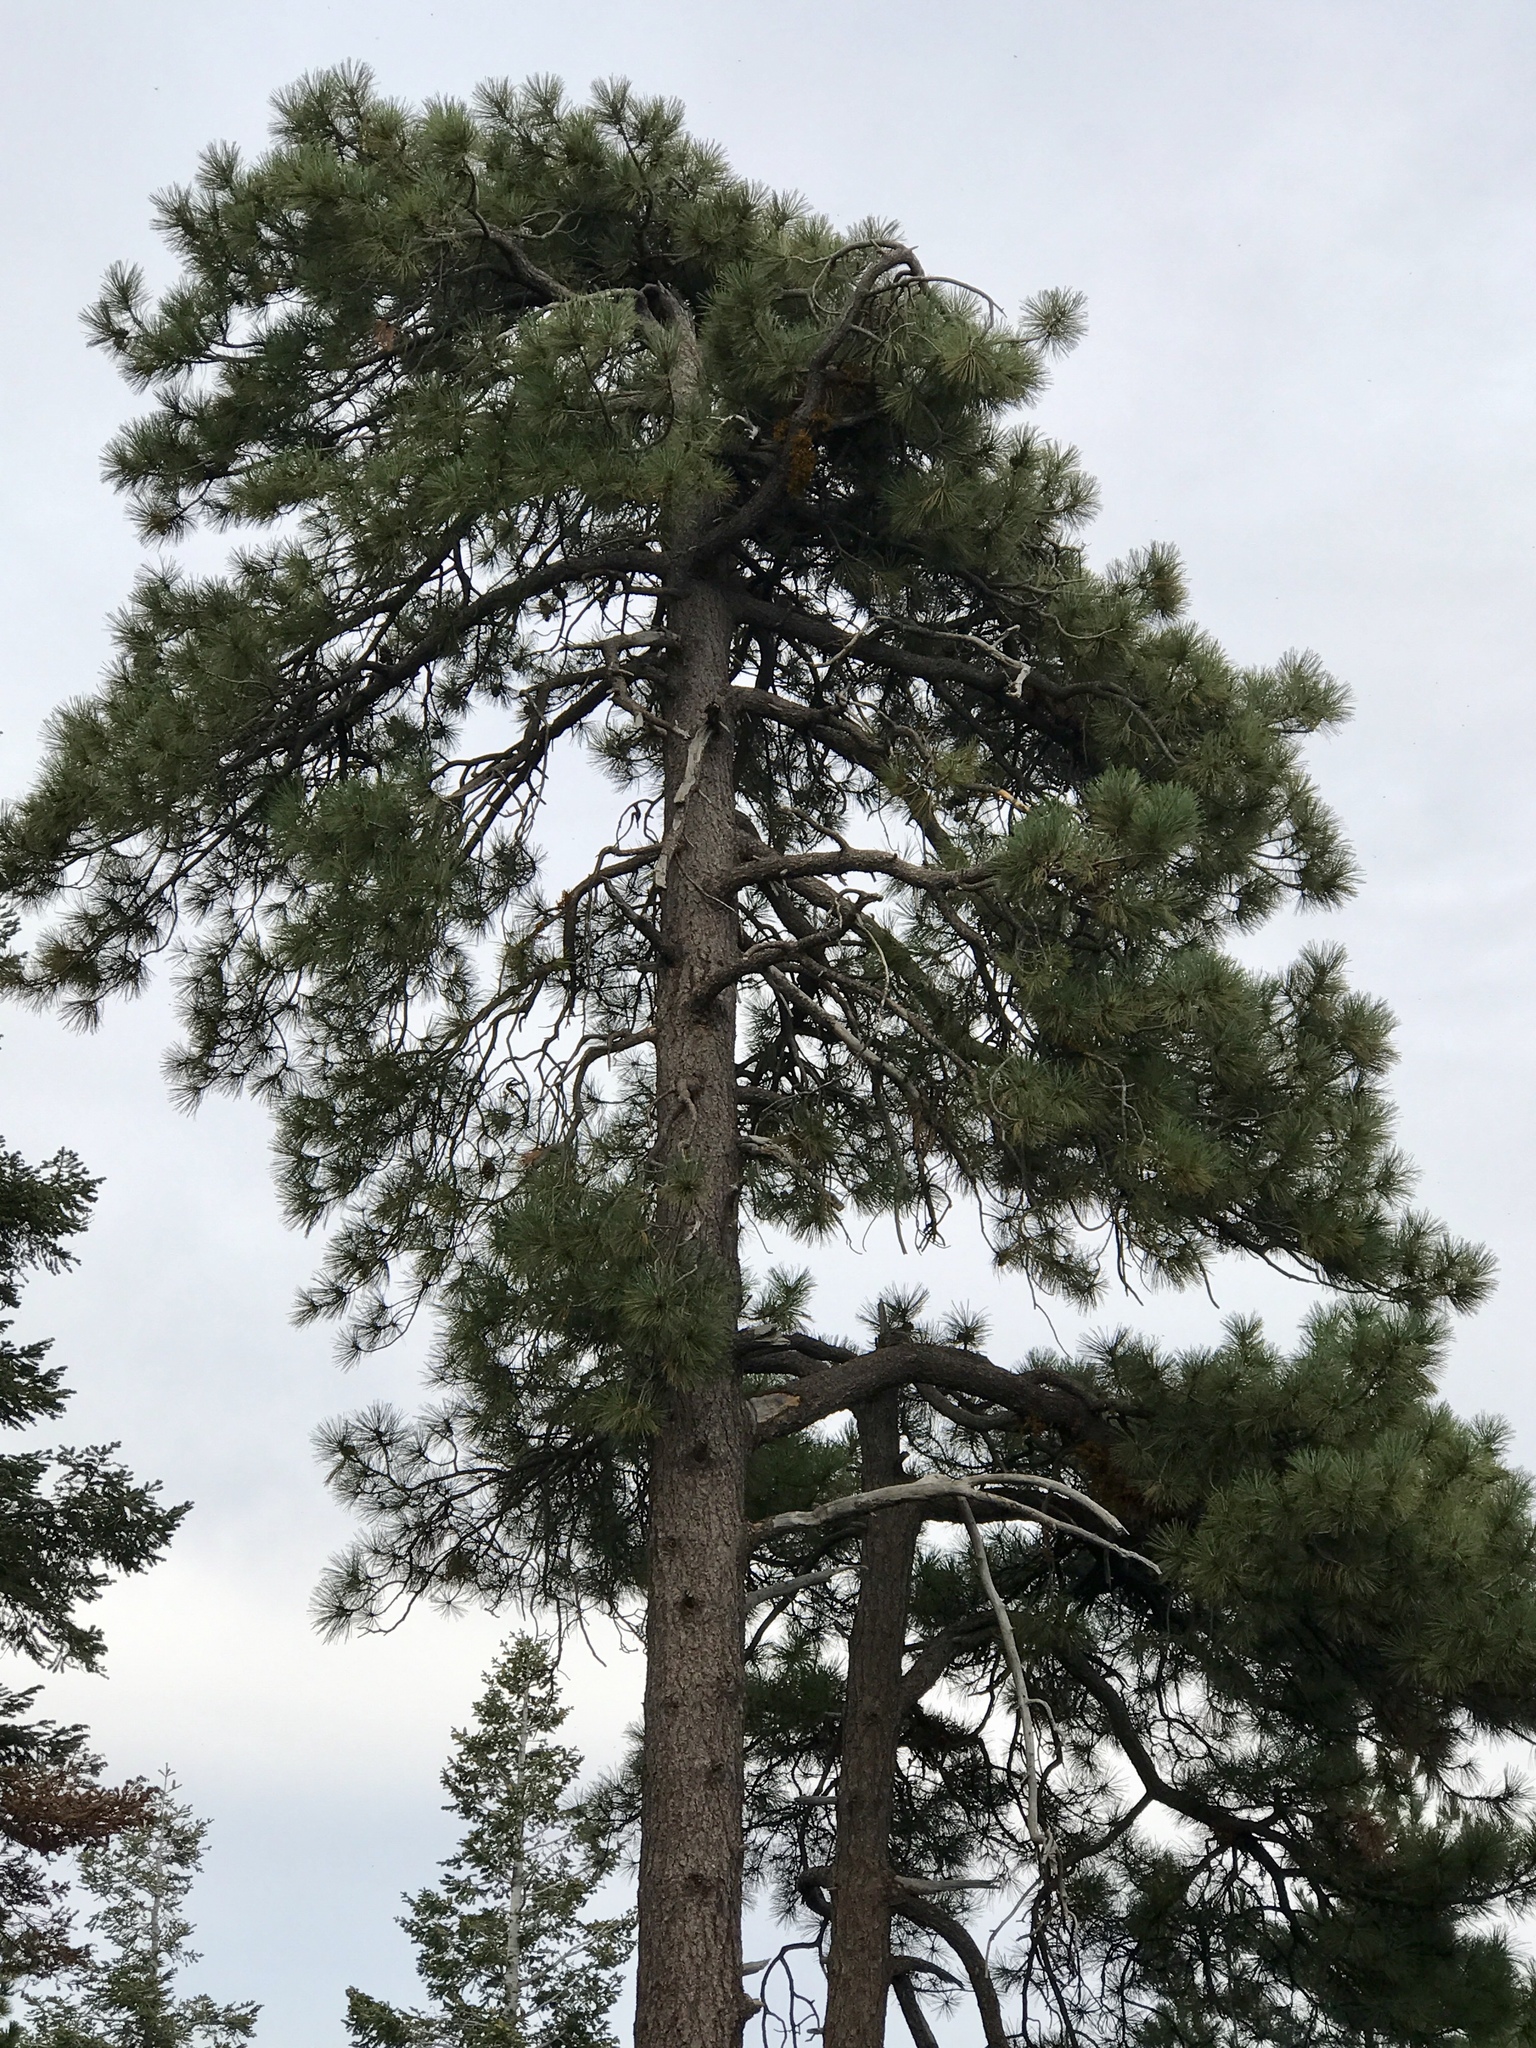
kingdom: Plantae
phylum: Tracheophyta
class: Pinopsida
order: Pinales
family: Pinaceae
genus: Pinus
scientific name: Pinus ponderosa
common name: Western yellow-pine
